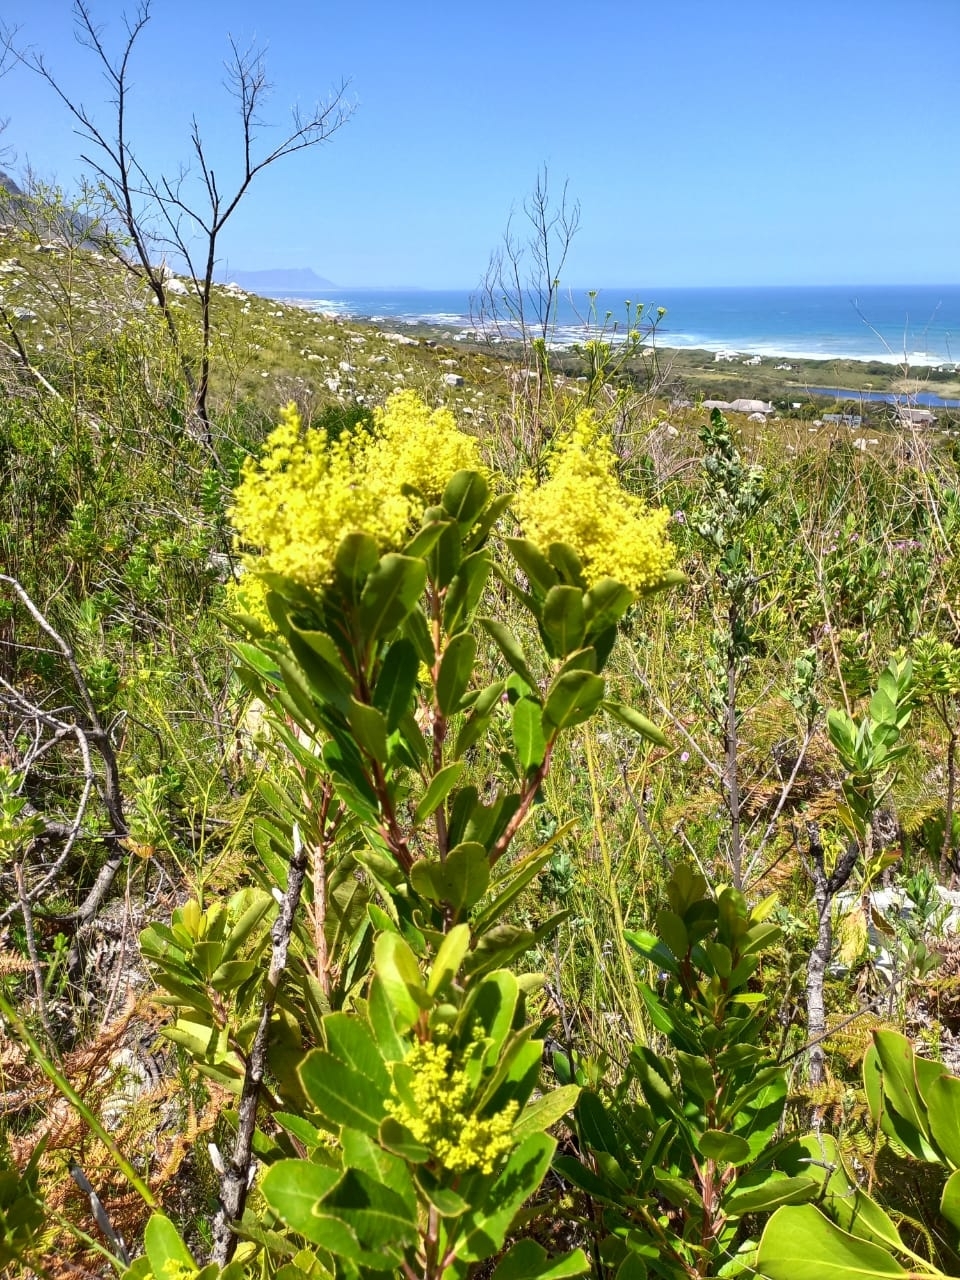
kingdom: Plantae
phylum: Tracheophyta
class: Magnoliopsida
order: Sapindales
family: Anacardiaceae
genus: Laurophyllus
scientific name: Laurophyllus capensis
